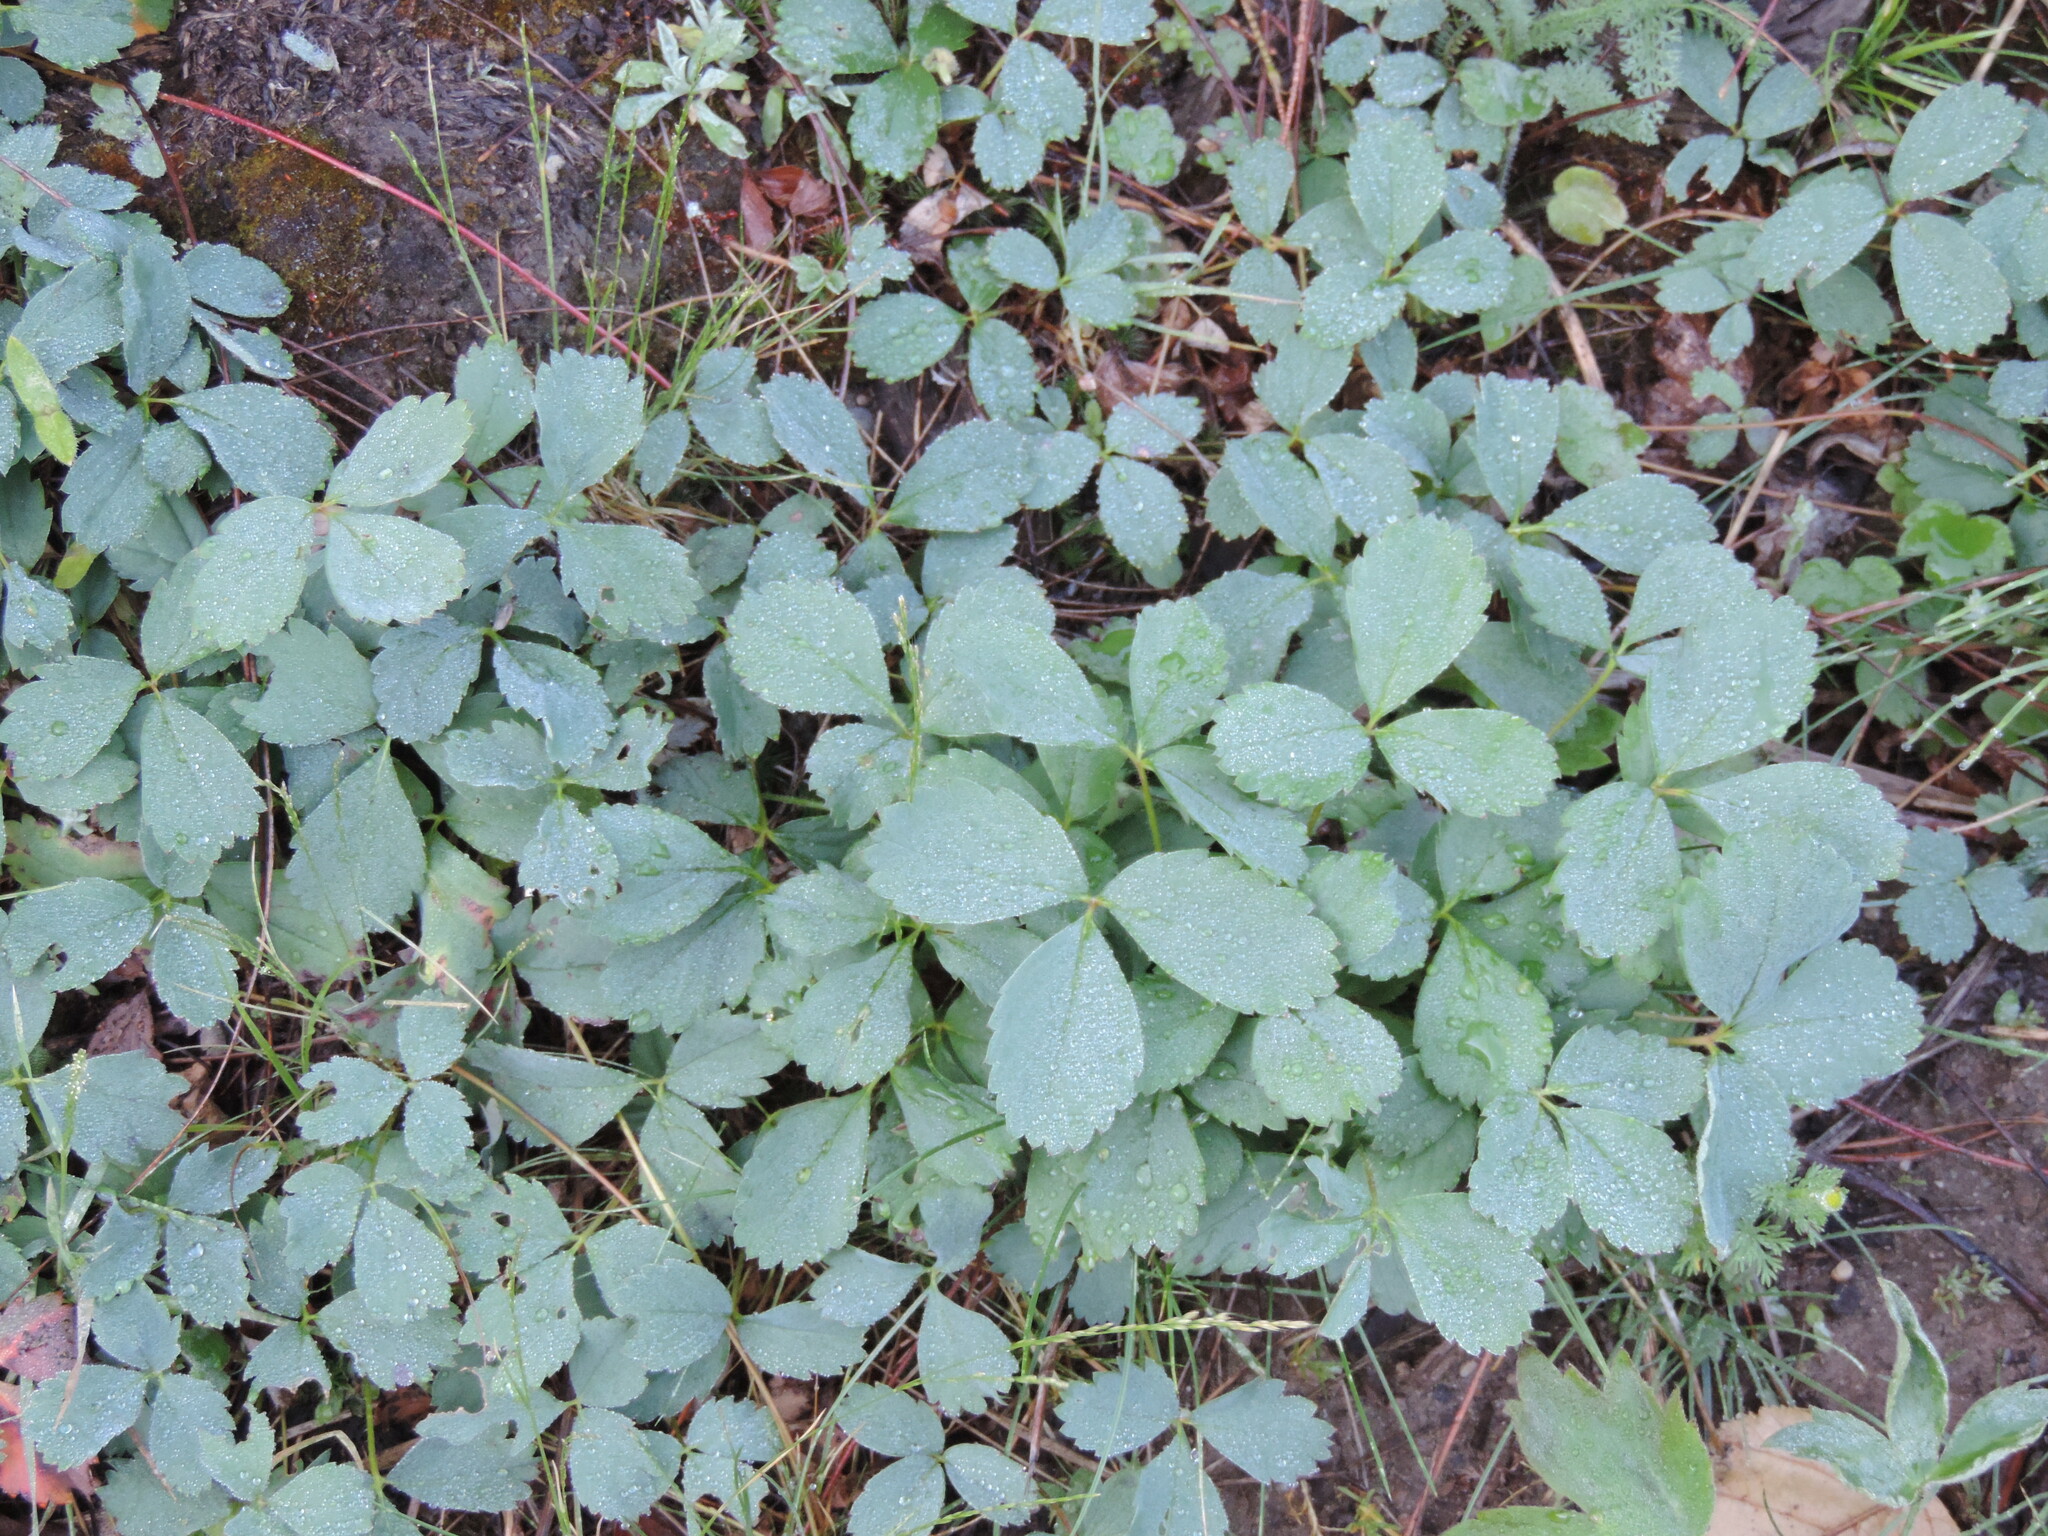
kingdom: Plantae
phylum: Tracheophyta
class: Magnoliopsida
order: Rosales
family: Rosaceae
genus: Fragaria
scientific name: Fragaria virginiana
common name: Thickleaved wild strawberry
